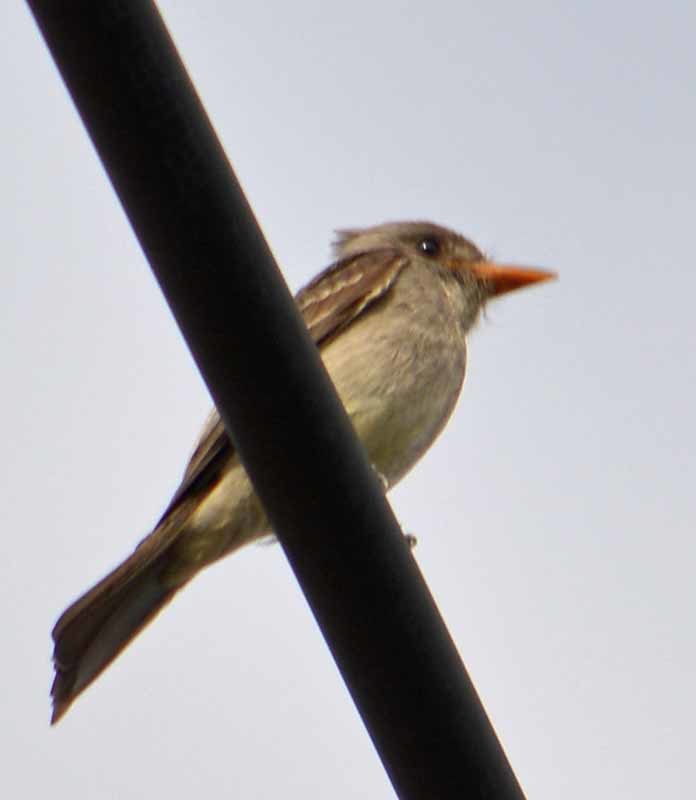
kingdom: Animalia
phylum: Chordata
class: Aves
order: Passeriformes
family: Tyrannidae
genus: Contopus
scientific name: Contopus pertinax
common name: Greater pewee
